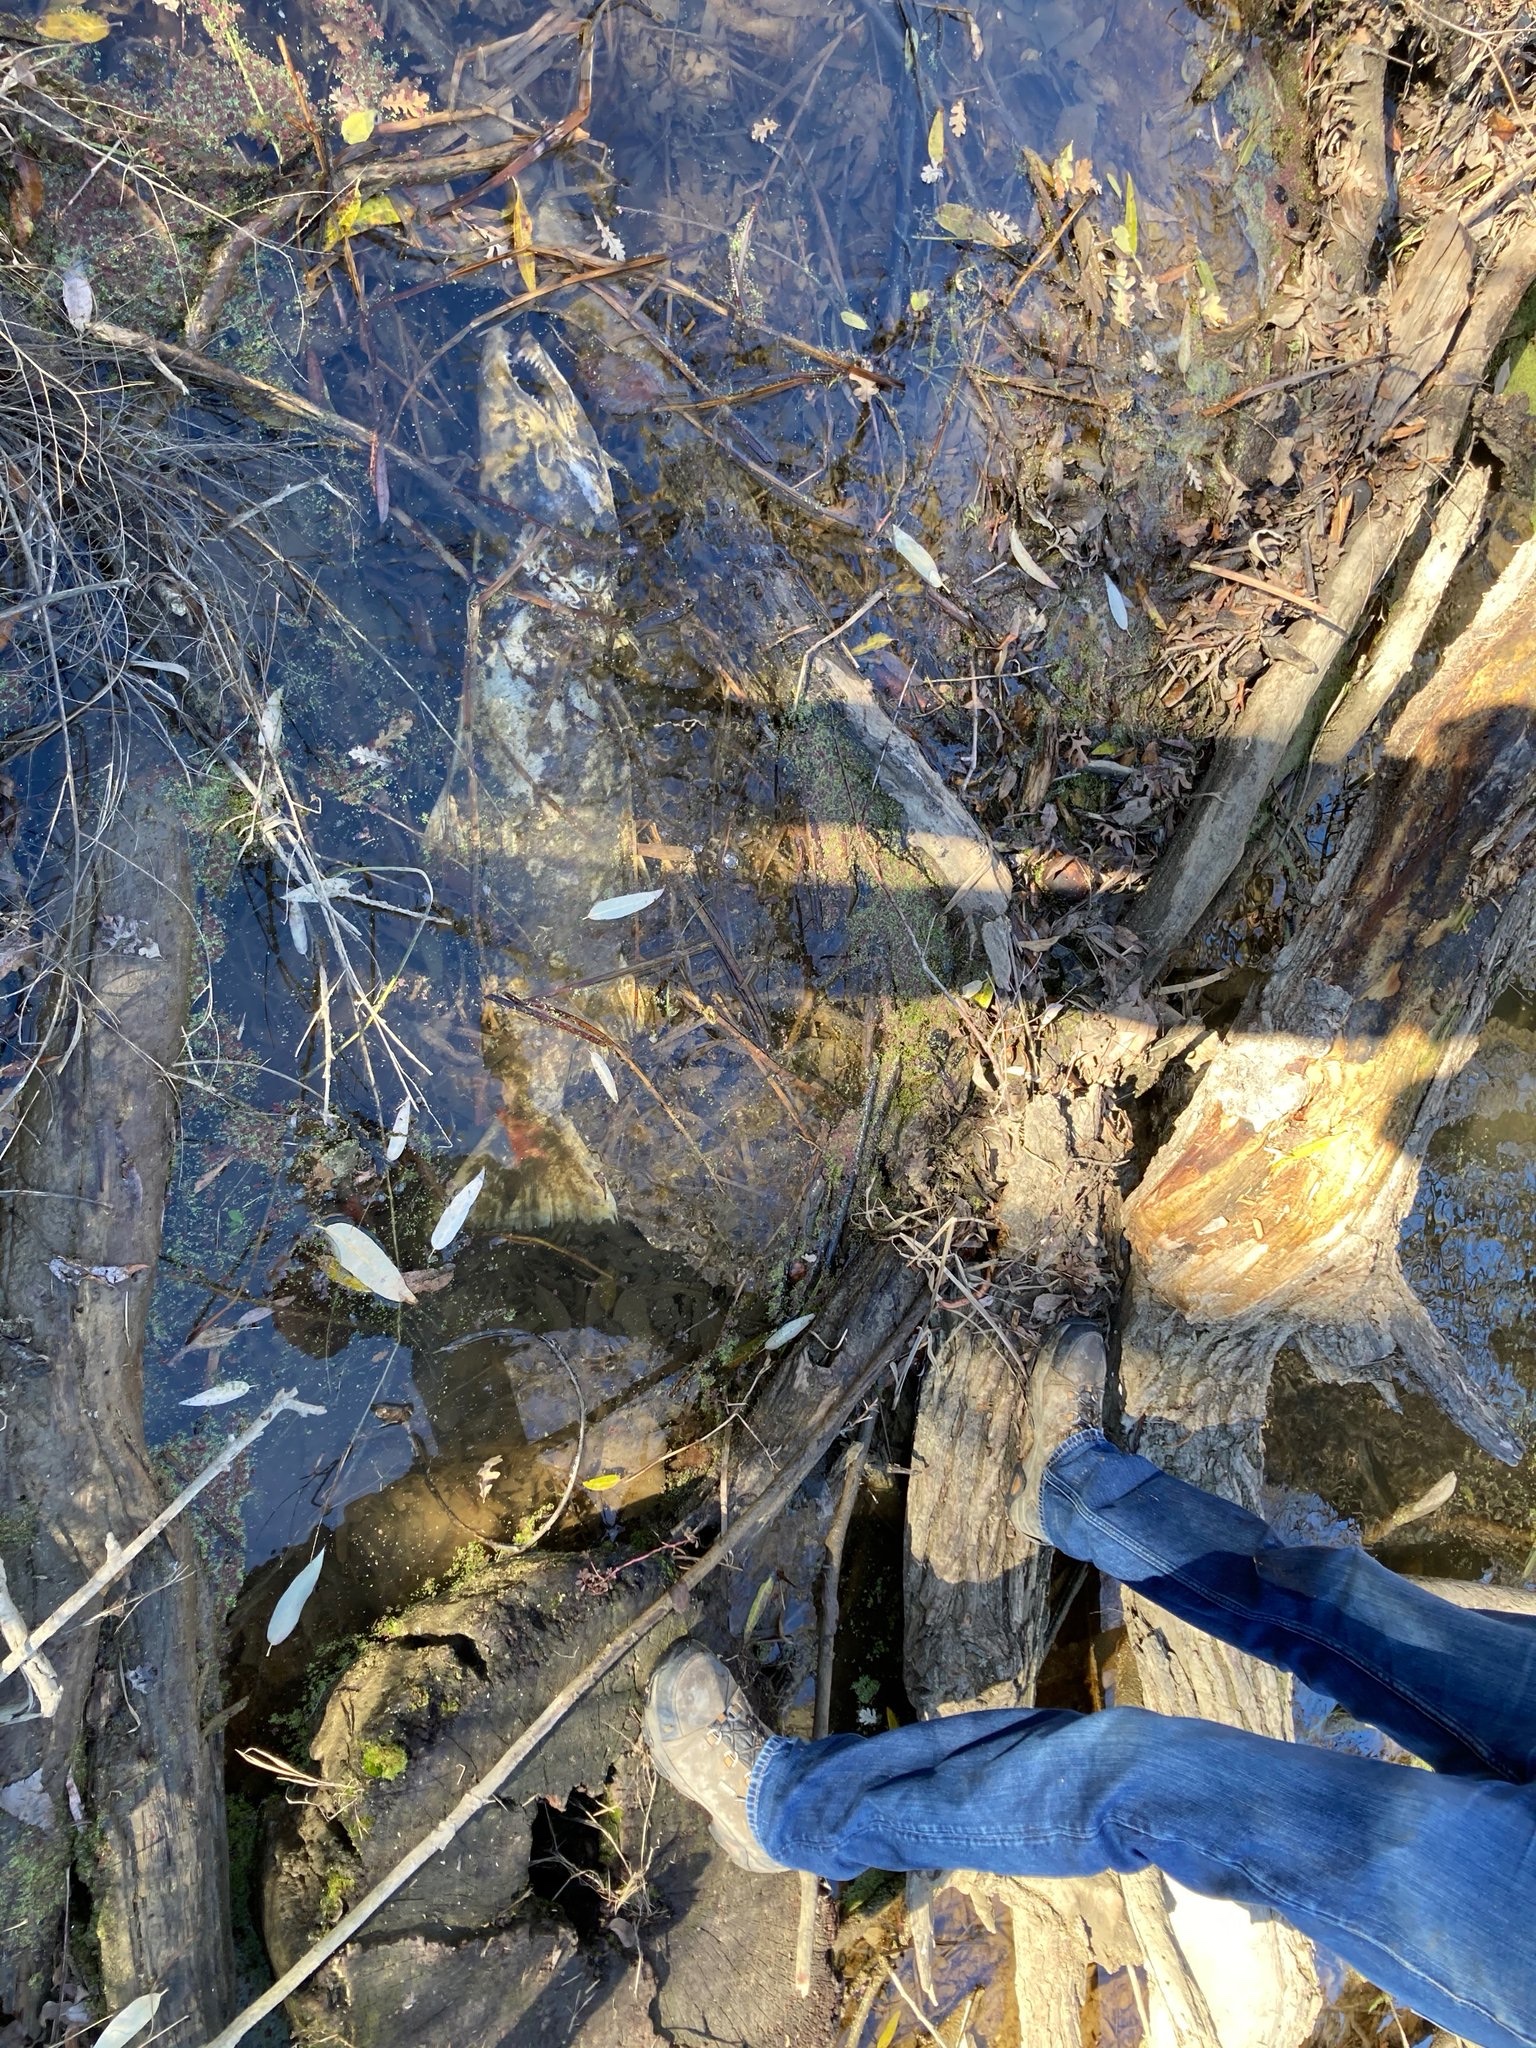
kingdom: Animalia
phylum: Chordata
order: Salmoniformes
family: Salmonidae
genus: Oncorhynchus
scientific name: Oncorhynchus tshawytscha
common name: Chinook salmon
